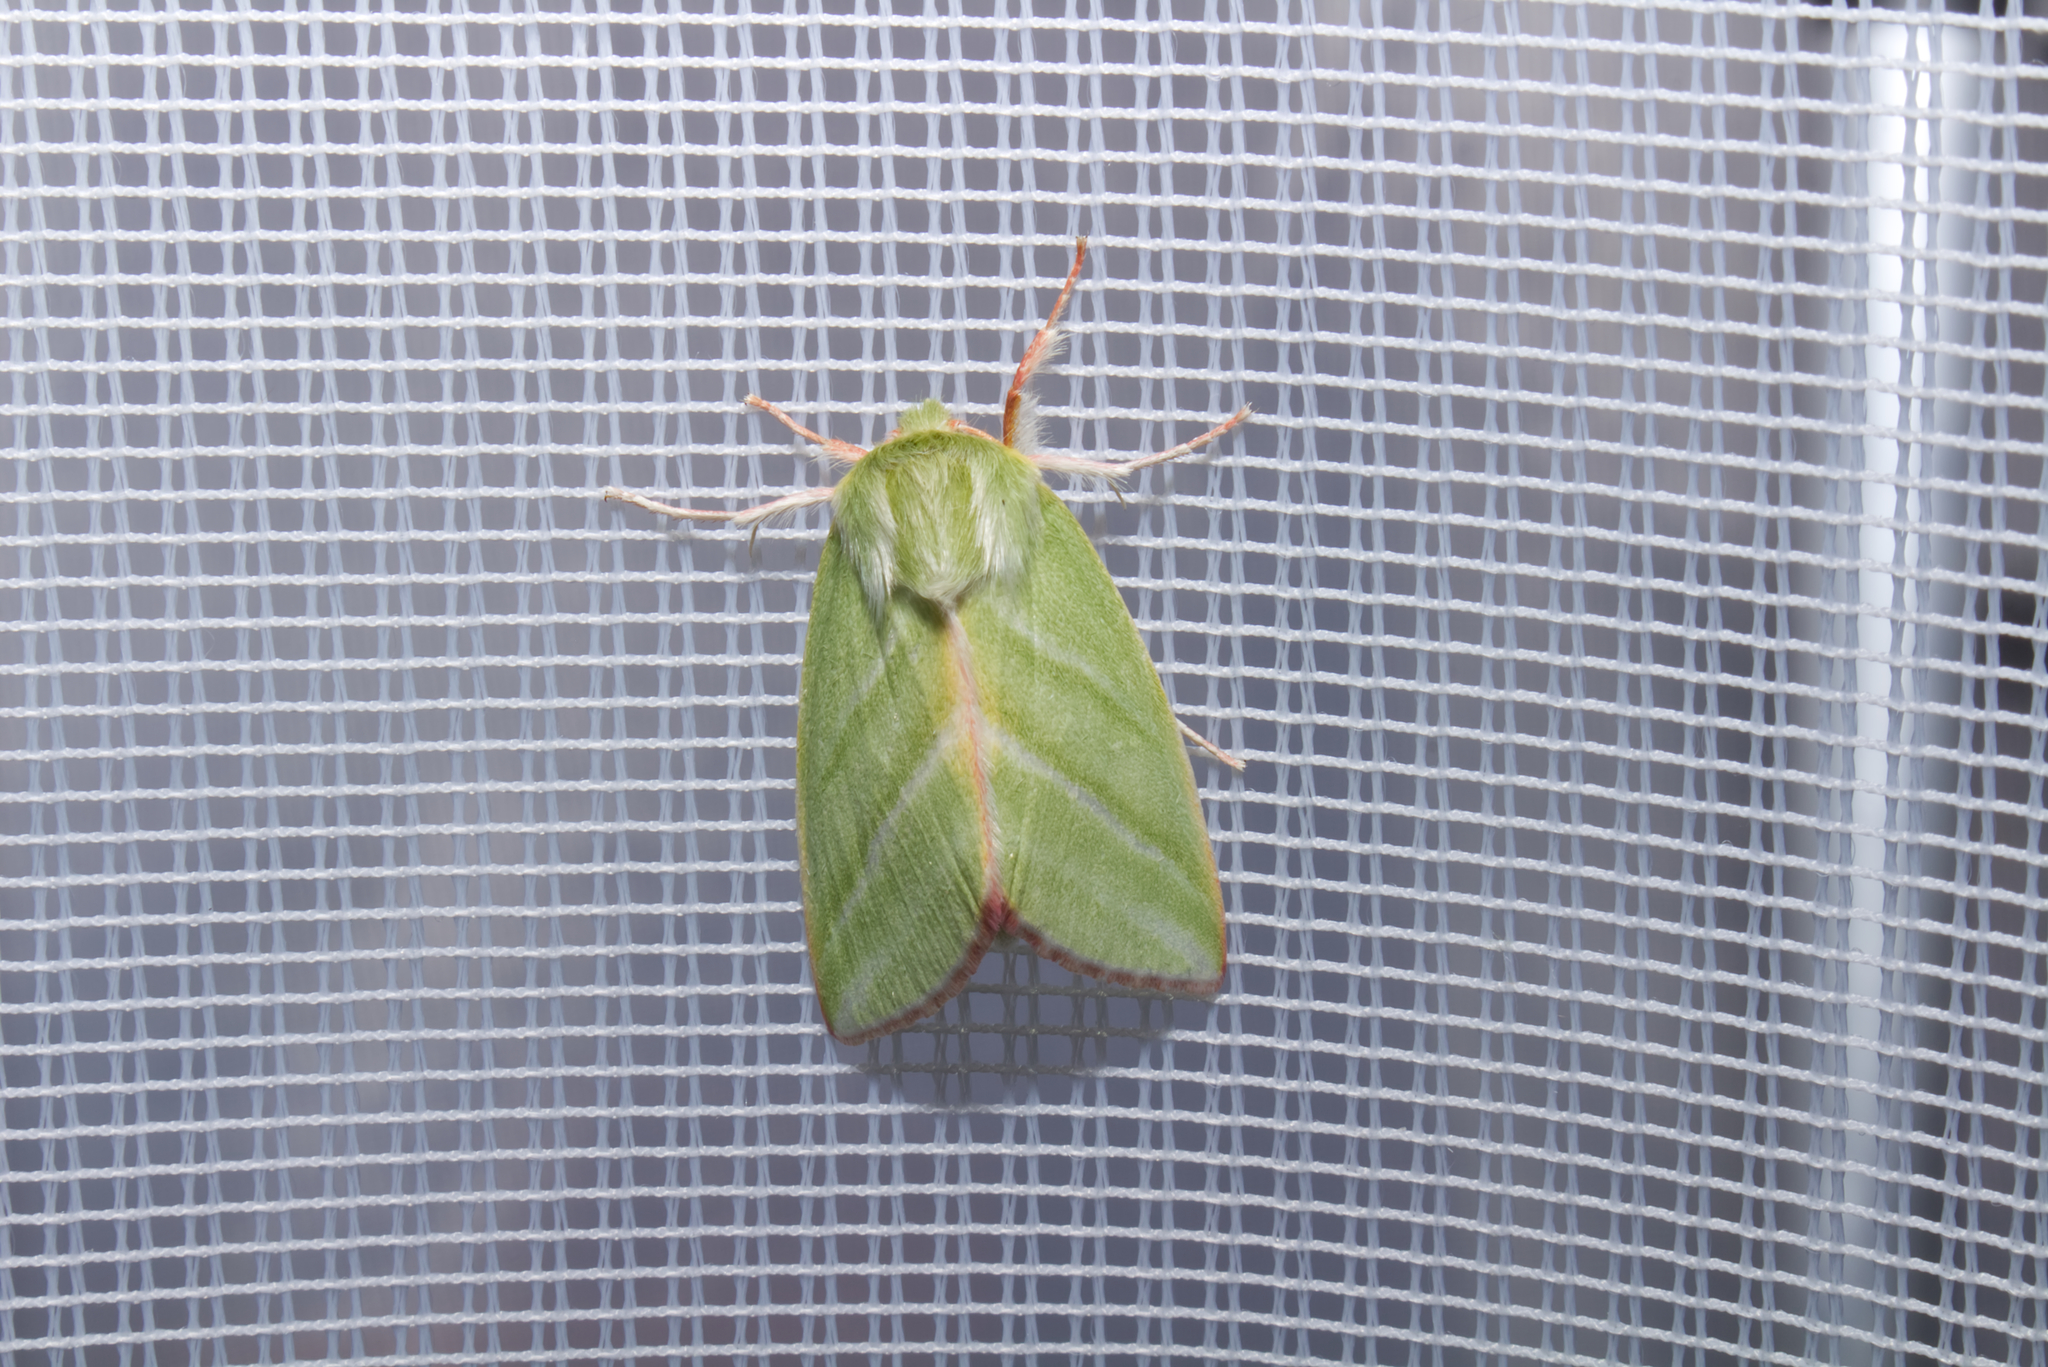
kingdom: Animalia
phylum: Arthropoda
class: Insecta
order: Lepidoptera
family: Nolidae
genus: Pseudoips
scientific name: Pseudoips prasinana
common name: Green silver-lines
